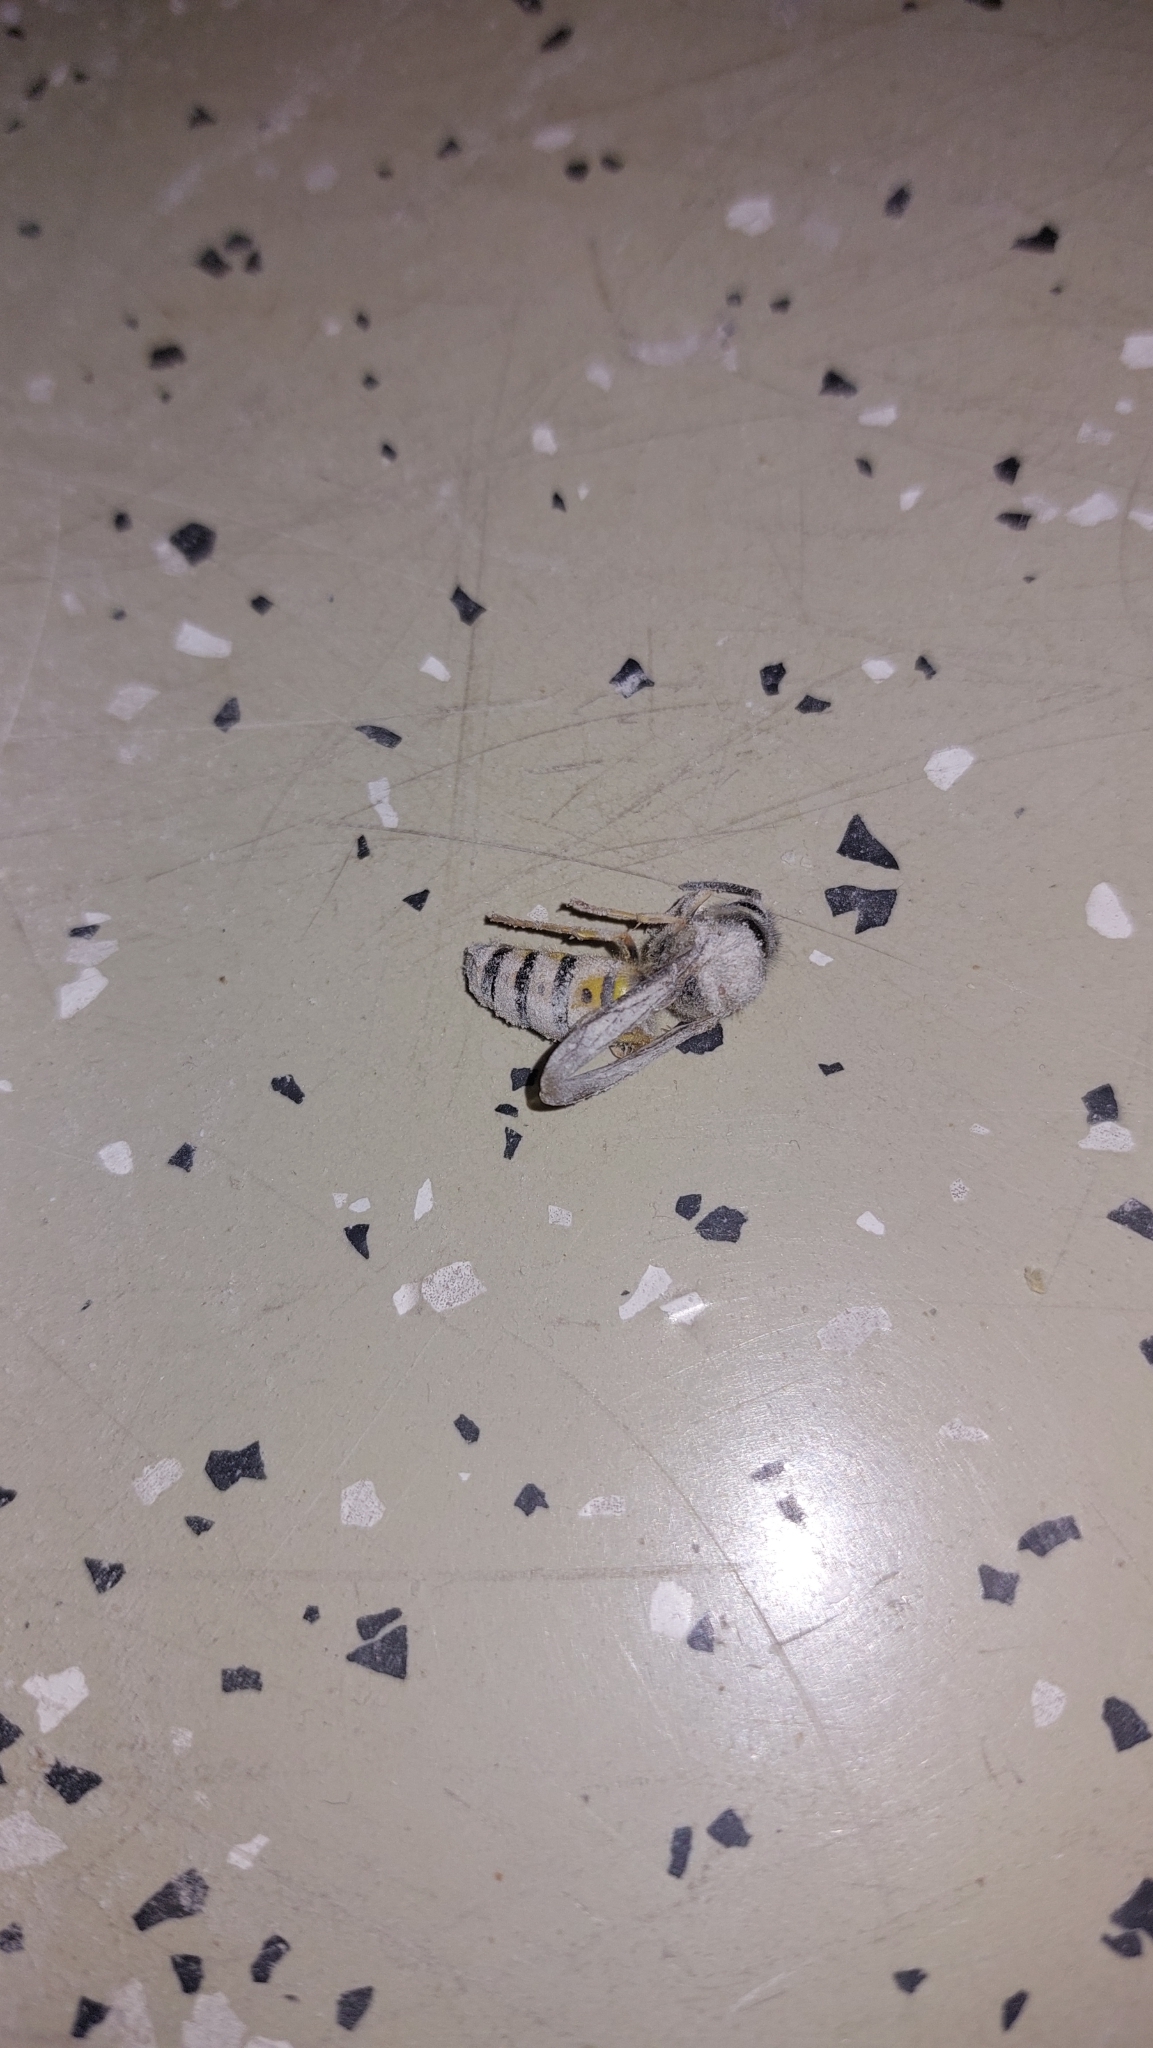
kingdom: Animalia
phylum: Arthropoda
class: Insecta
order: Hymenoptera
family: Vespidae
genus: Vespula
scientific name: Vespula germanica
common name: German wasp
